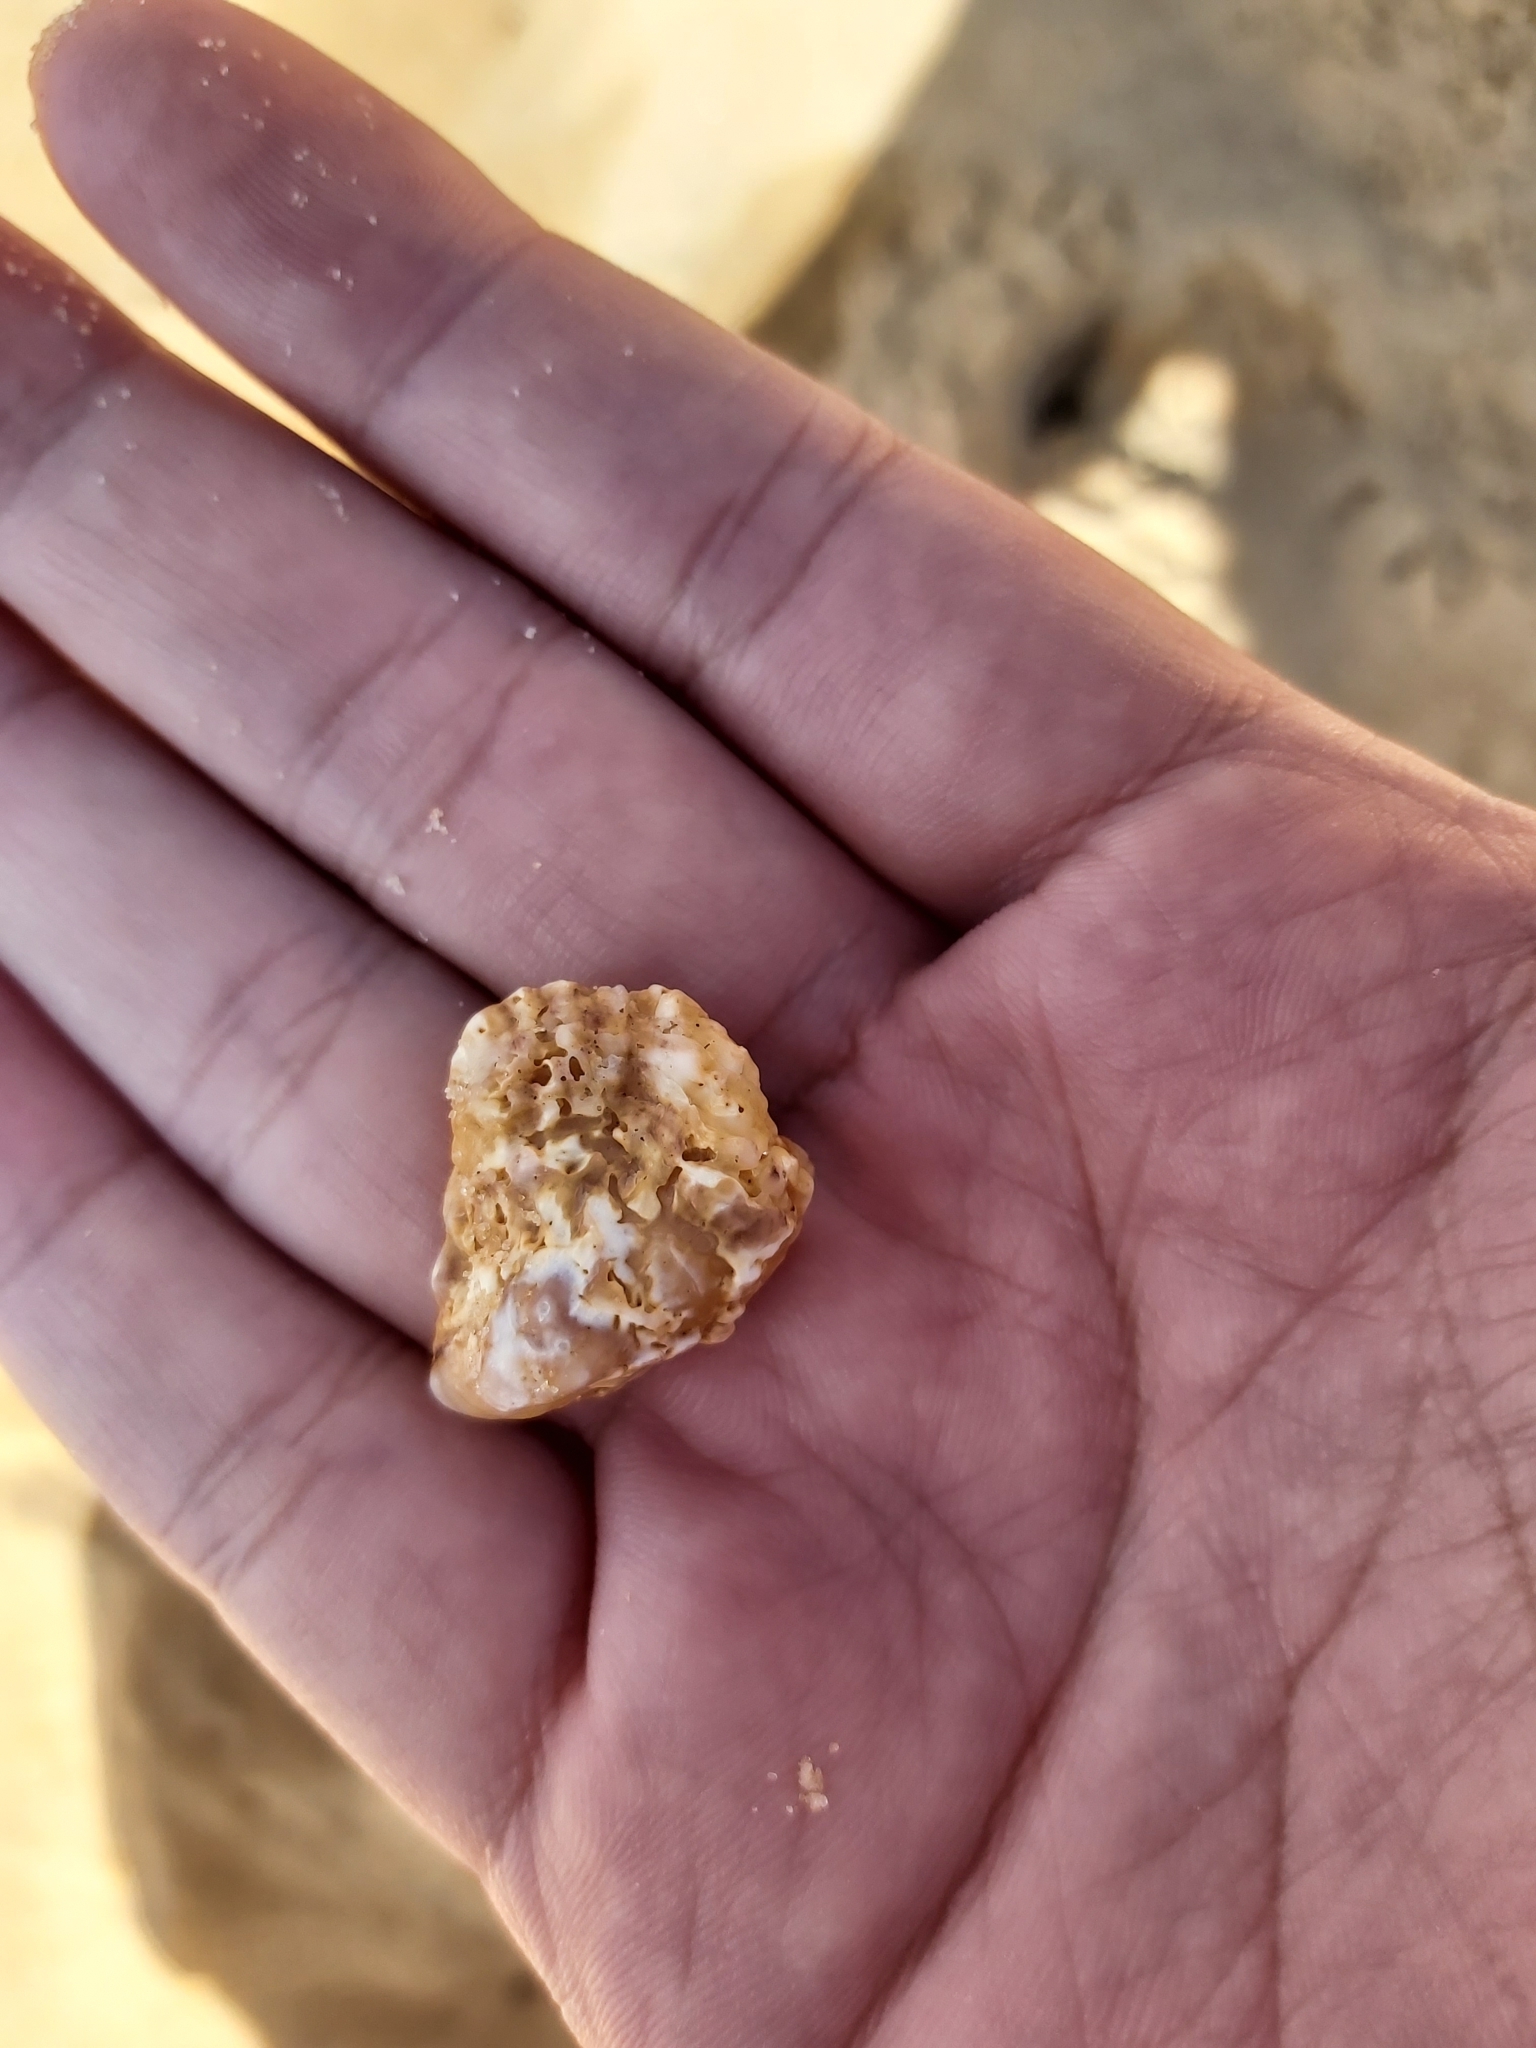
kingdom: Animalia
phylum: Mollusca
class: Bivalvia
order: Ostreida
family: Ostreidae
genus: Saccostrea
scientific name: Saccostrea glomerata
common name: Sydney cupped oyster
